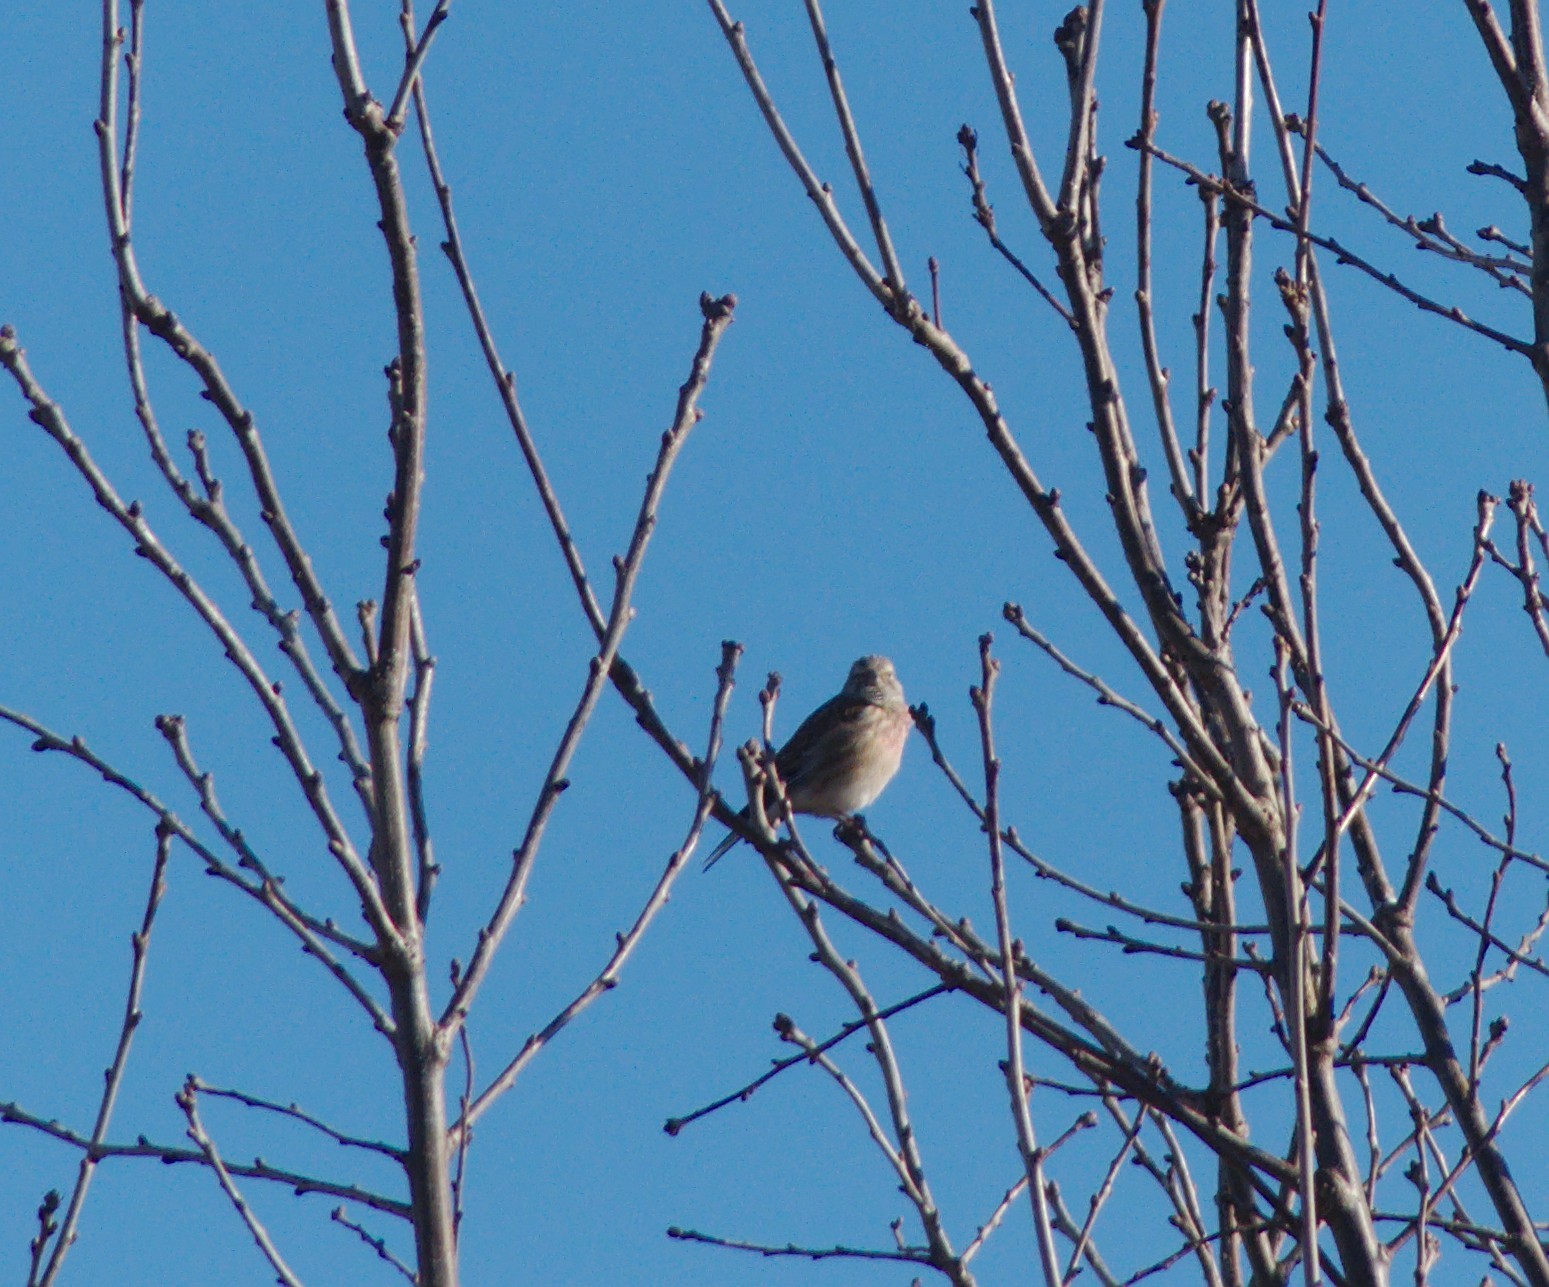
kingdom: Animalia
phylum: Chordata
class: Aves
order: Passeriformes
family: Fringillidae
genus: Linaria
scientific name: Linaria cannabina
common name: Common linnet
